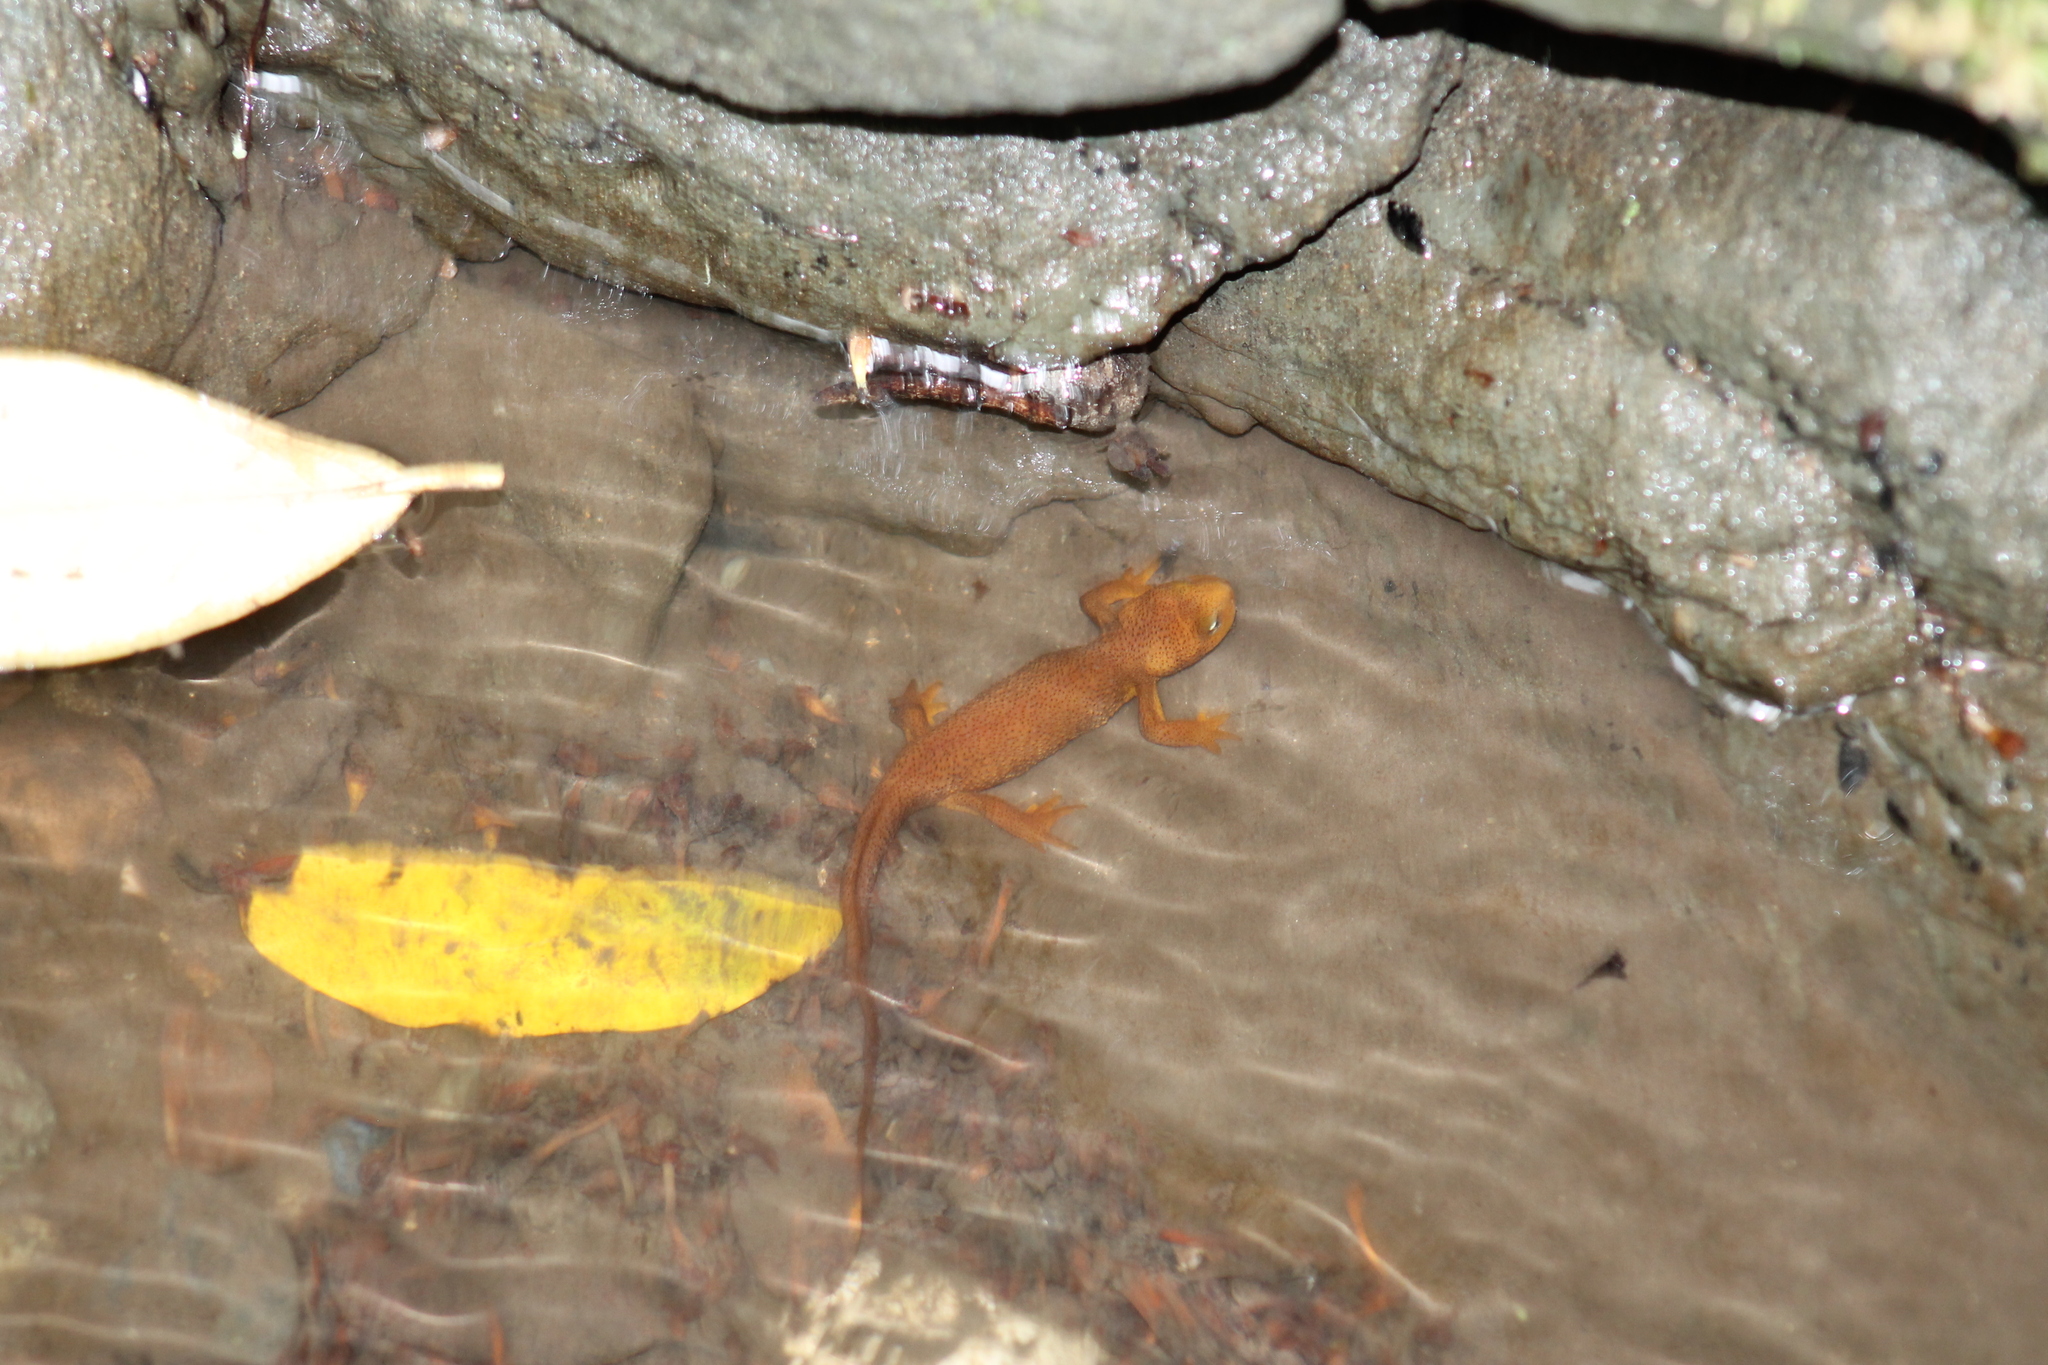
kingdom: Animalia
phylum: Chordata
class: Amphibia
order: Caudata
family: Salamandridae
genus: Taricha
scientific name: Taricha granulosa
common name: Roughskin newt
